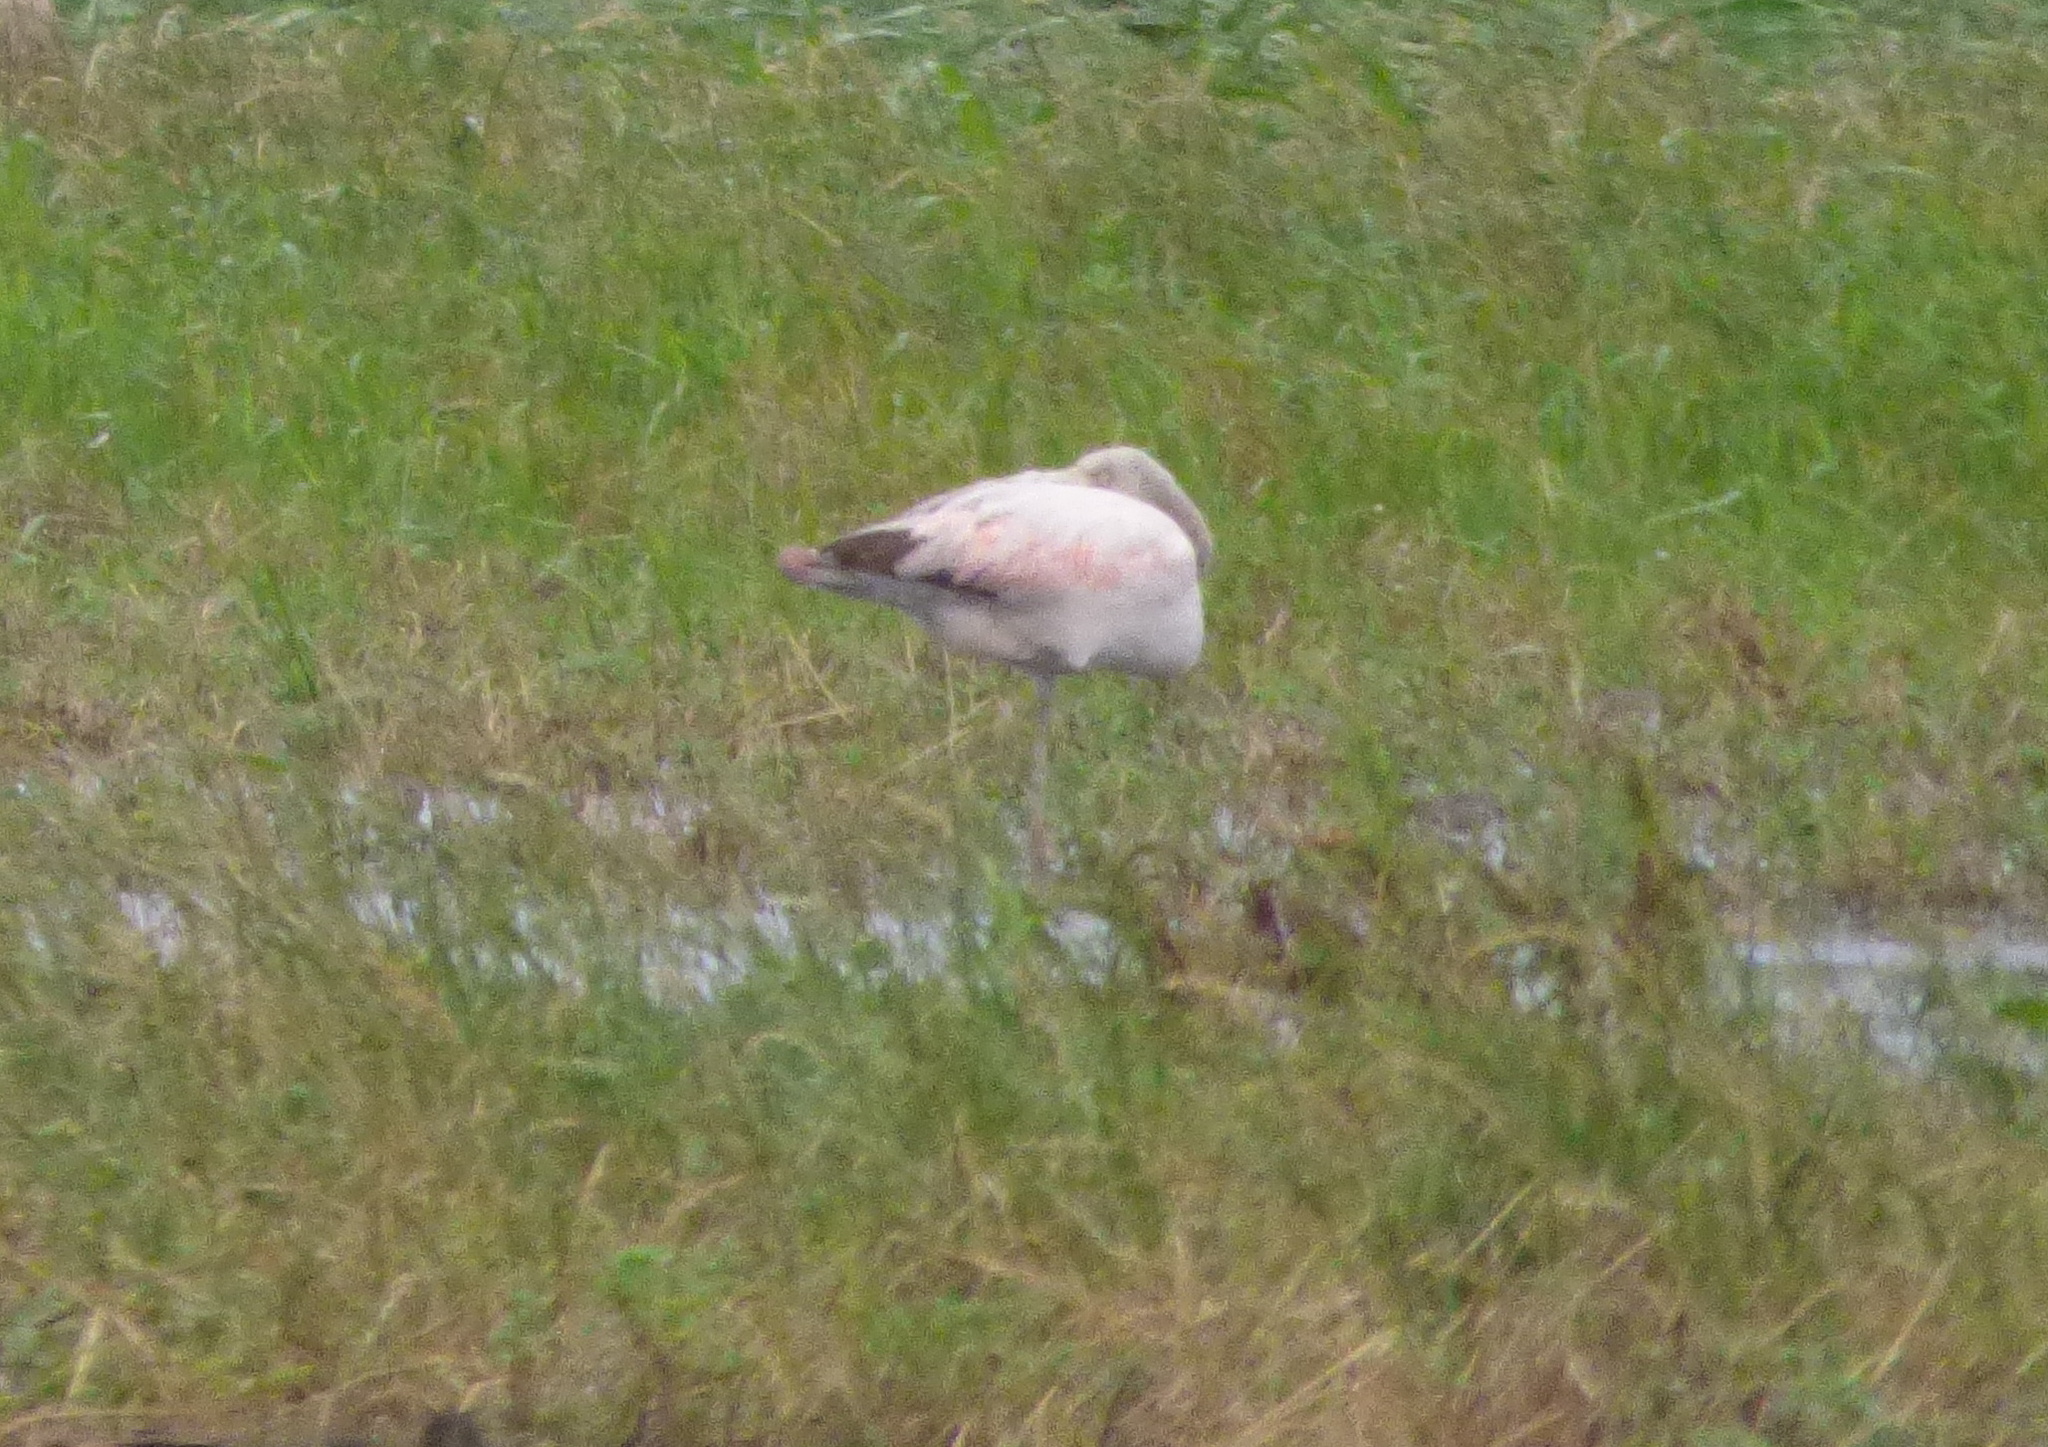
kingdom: Animalia
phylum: Chordata
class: Aves
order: Phoenicopteriformes
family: Phoenicopteridae
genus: Phoenicopterus
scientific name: Phoenicopterus chilensis
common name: Chilean flamingo
